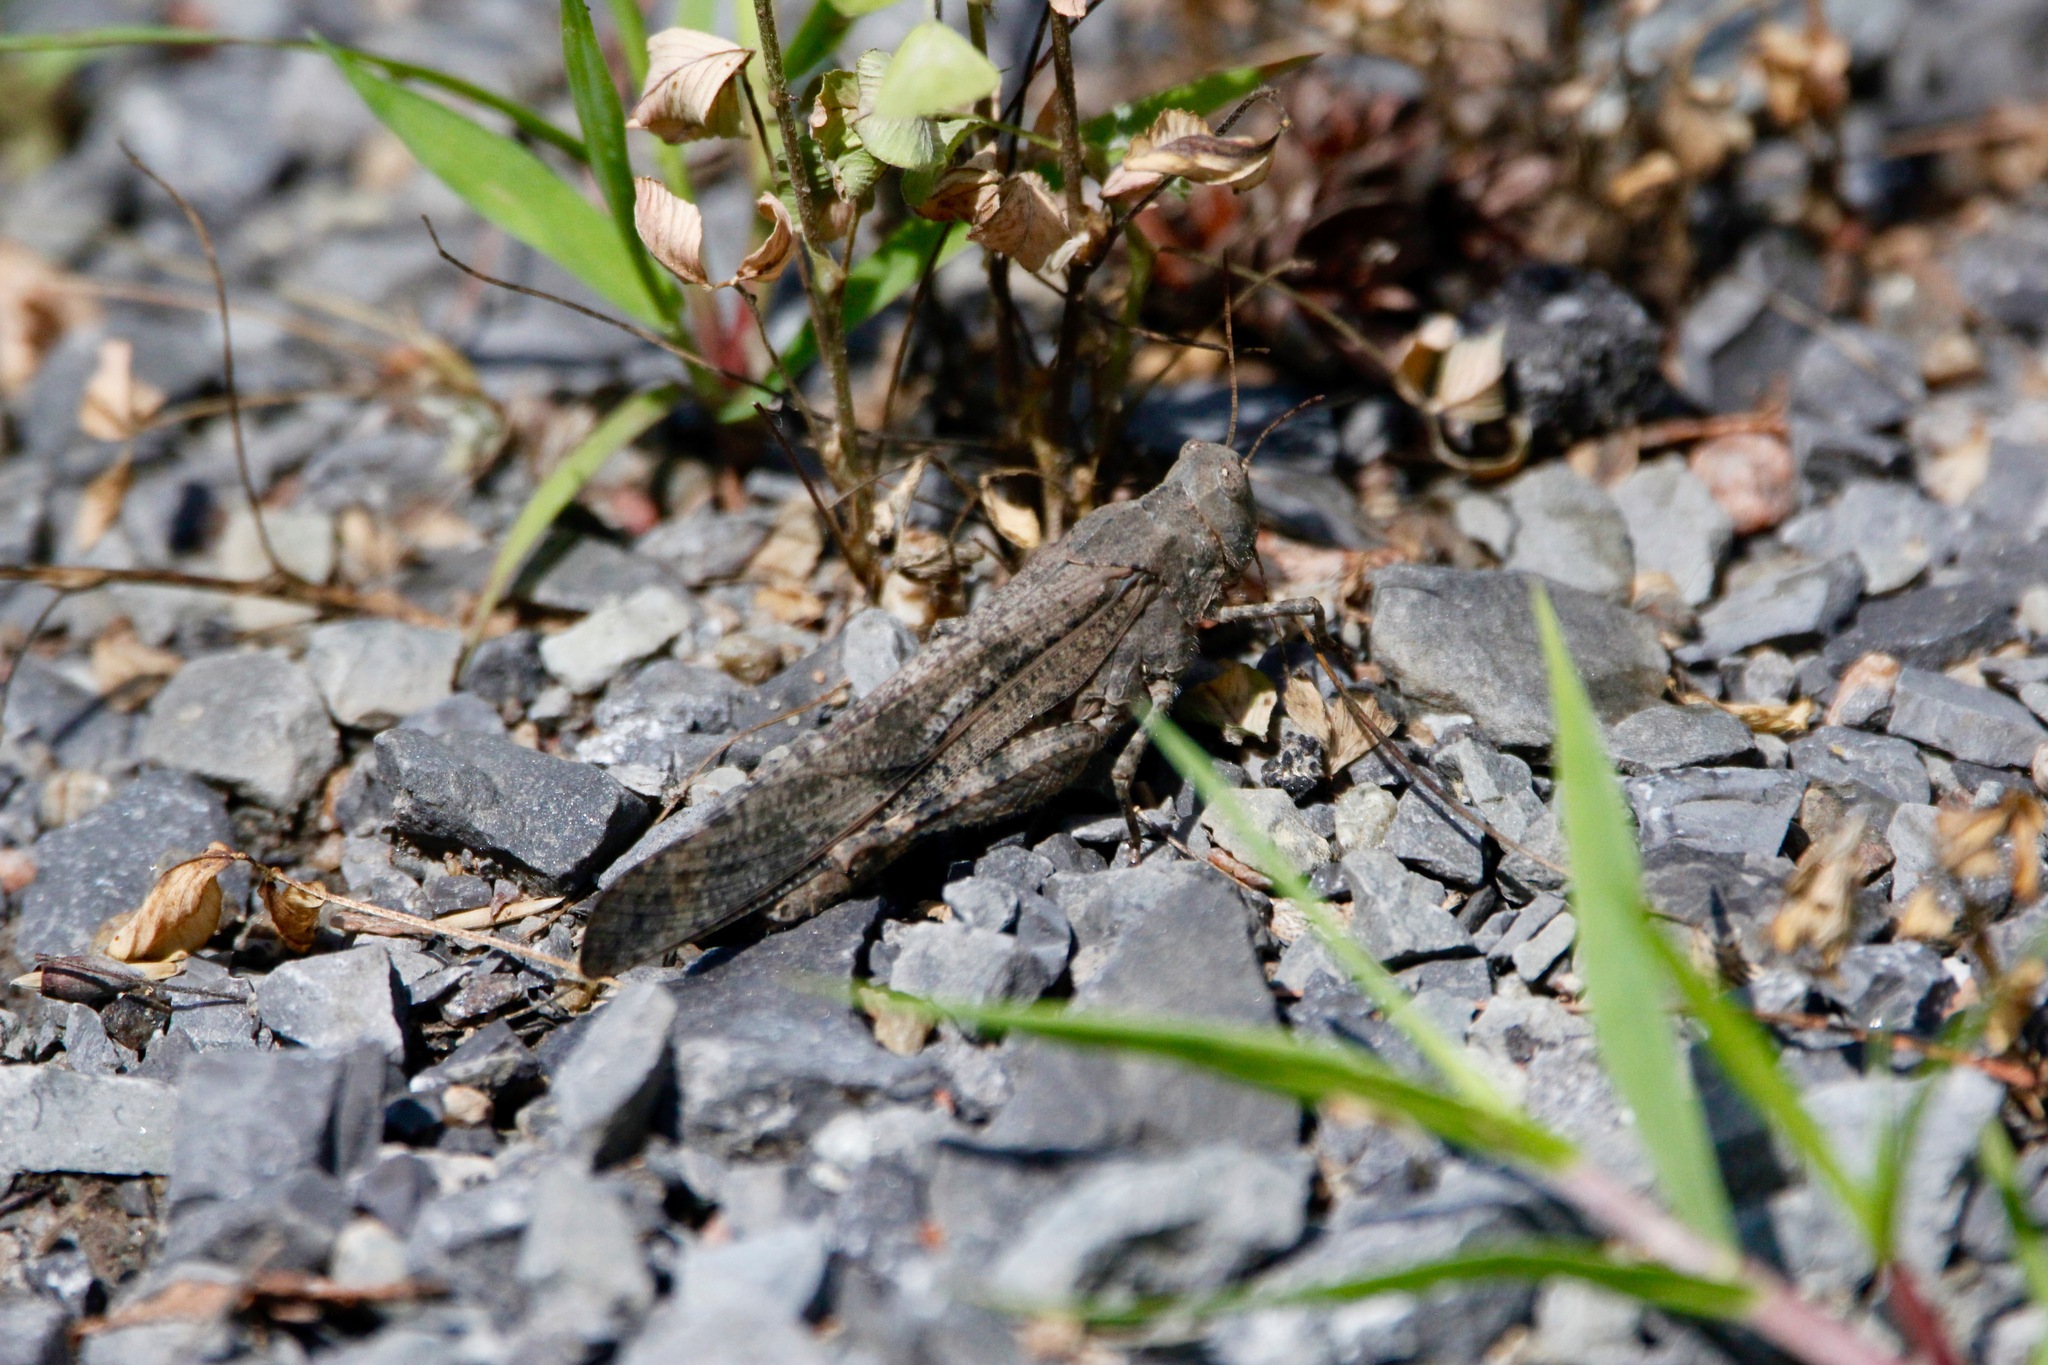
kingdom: Animalia
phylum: Arthropoda
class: Insecta
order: Orthoptera
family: Acrididae
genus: Dissosteira
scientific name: Dissosteira carolina
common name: Carolina grasshopper
